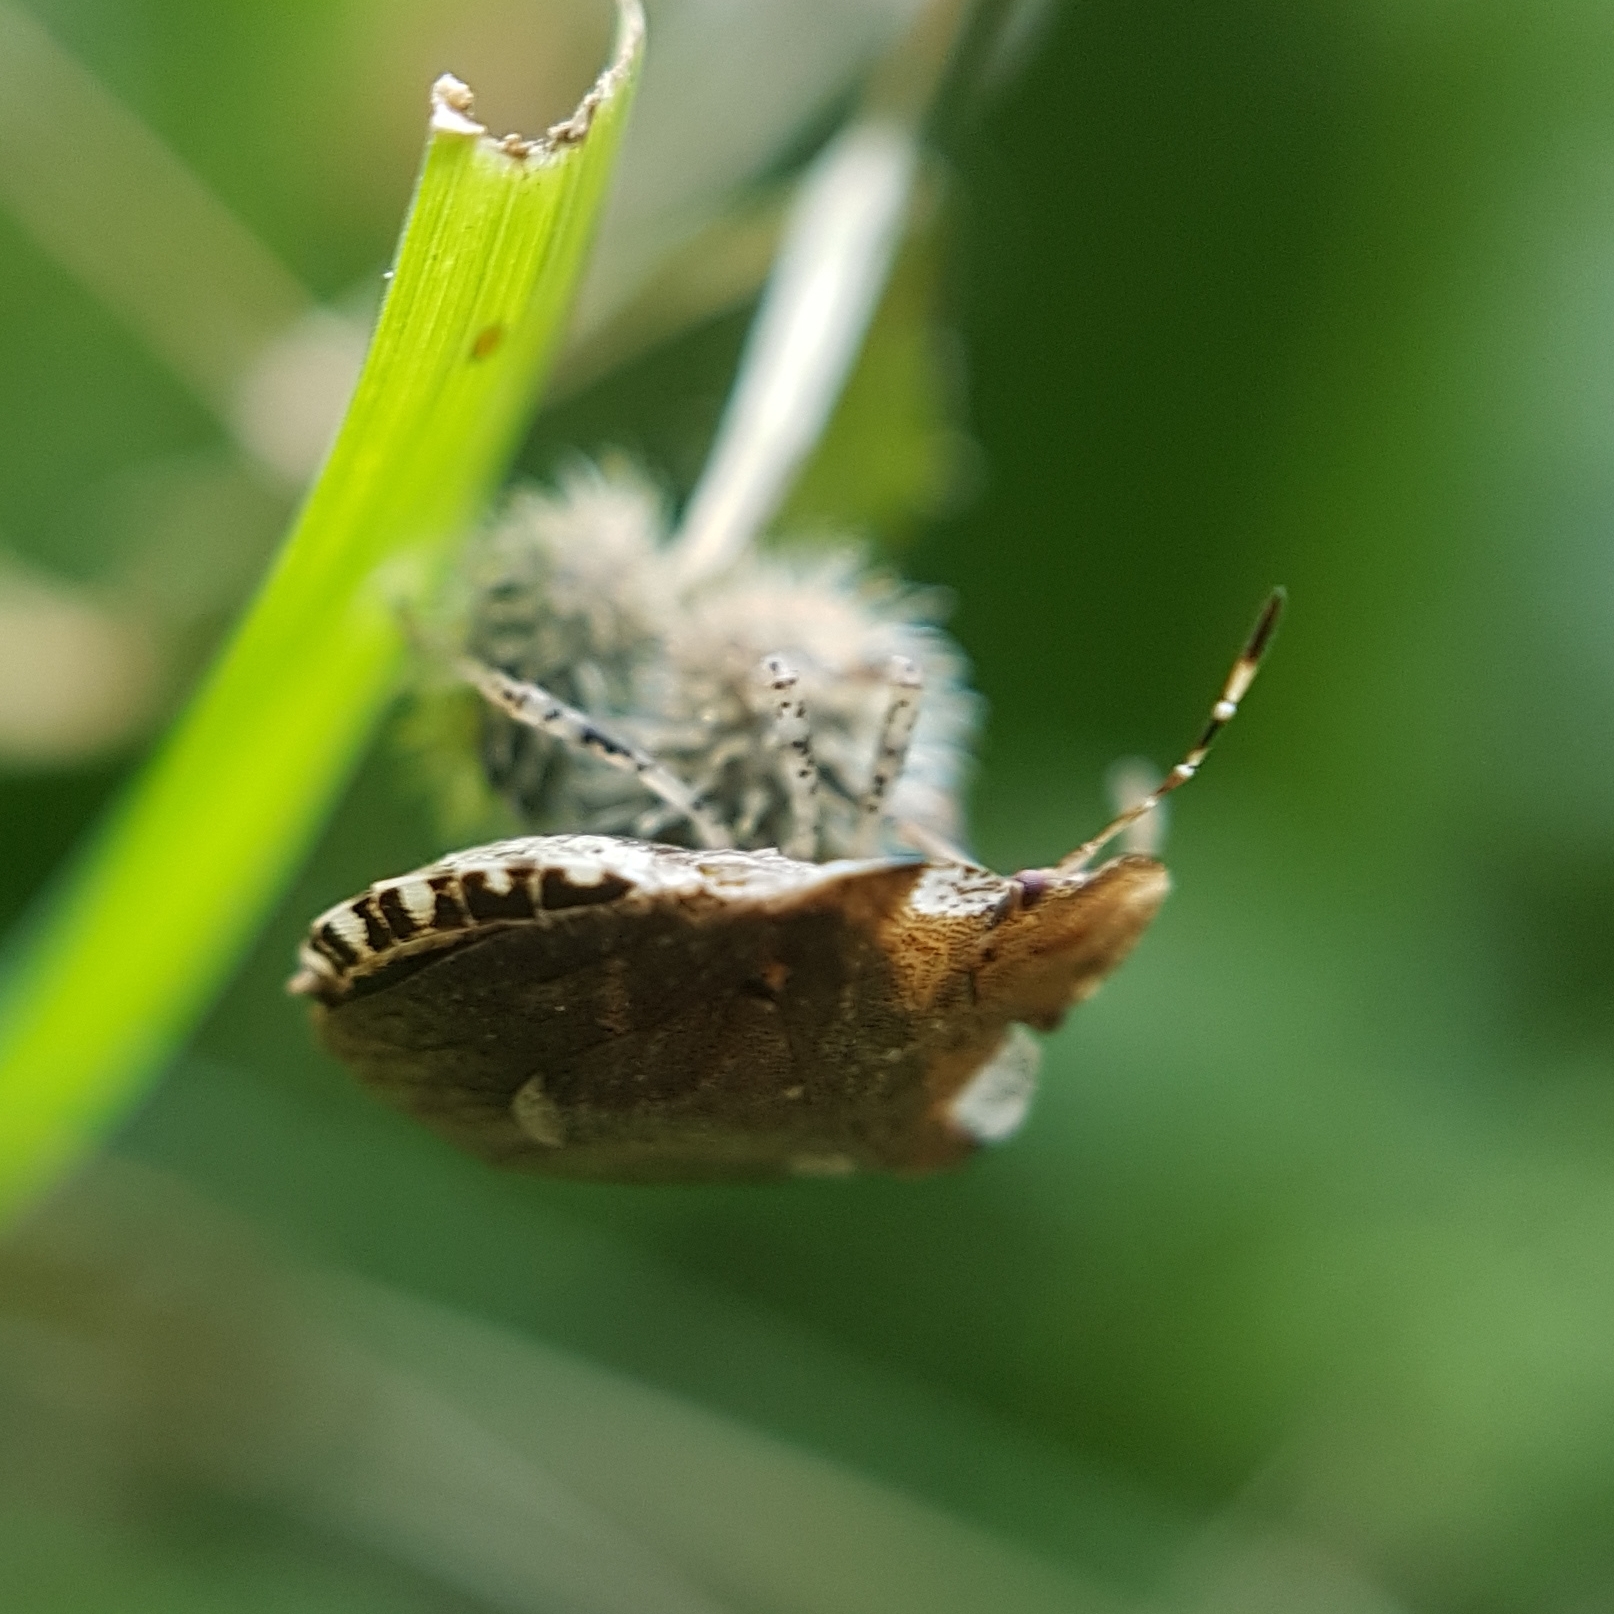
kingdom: Animalia
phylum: Arthropoda
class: Insecta
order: Hemiptera
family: Pentatomidae
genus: Dyroderes
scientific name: Dyroderes umbraculatus
